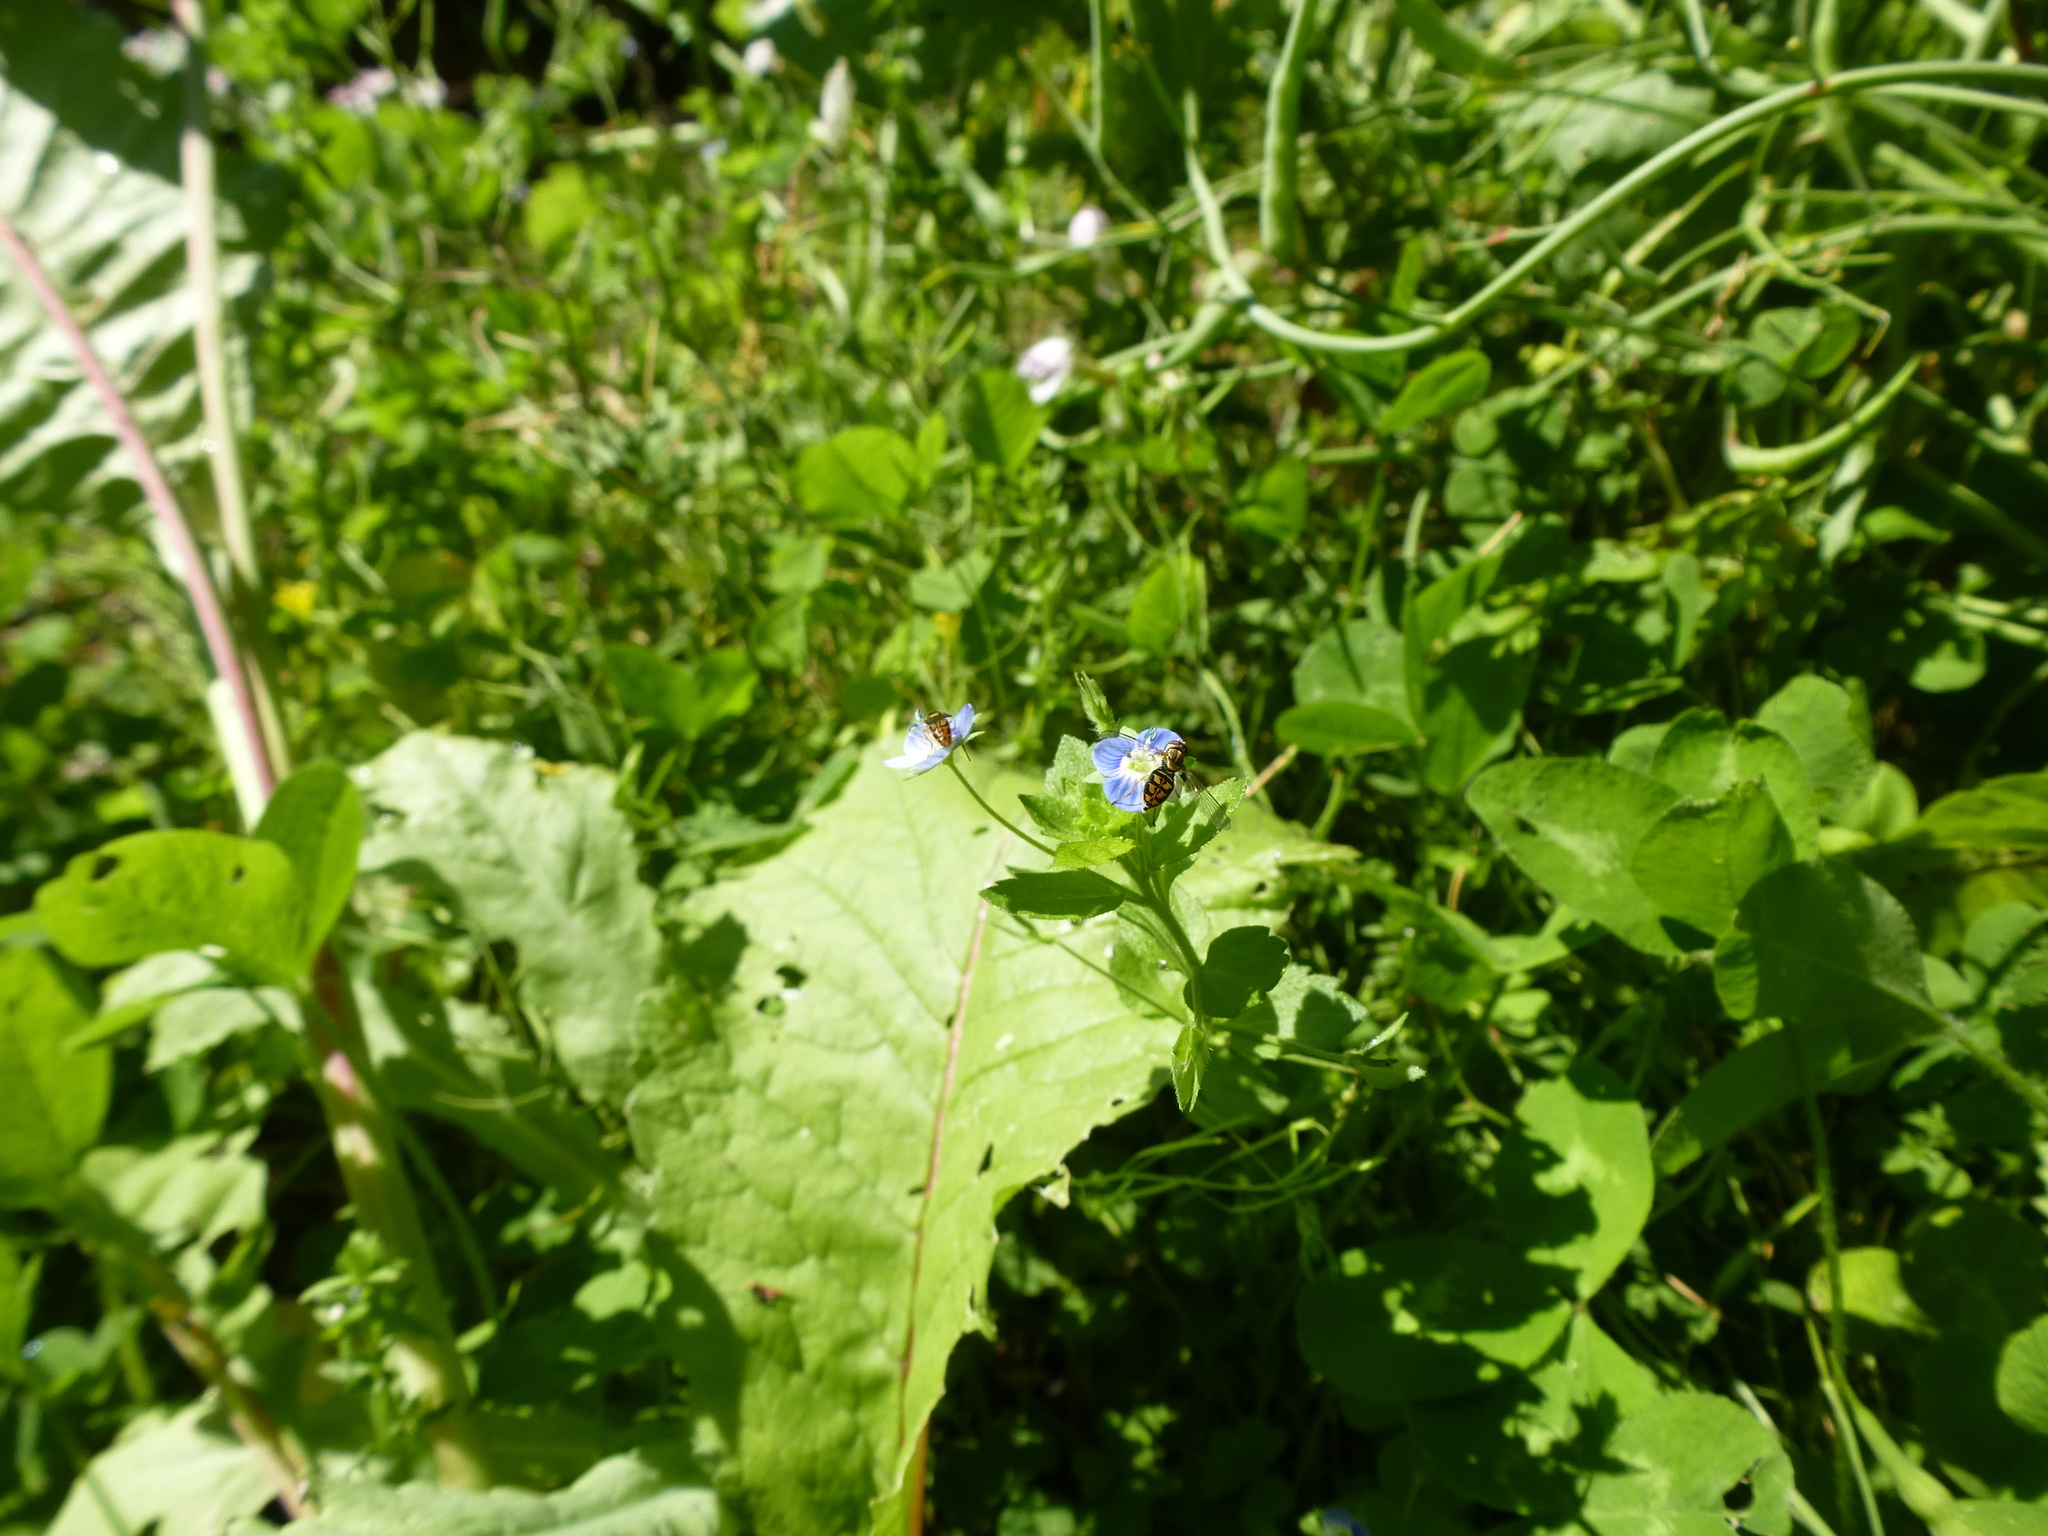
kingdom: Animalia
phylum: Arthropoda
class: Insecta
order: Diptera
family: Syrphidae
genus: Toxomerus
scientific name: Toxomerus marginatus
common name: Syrphid fly
